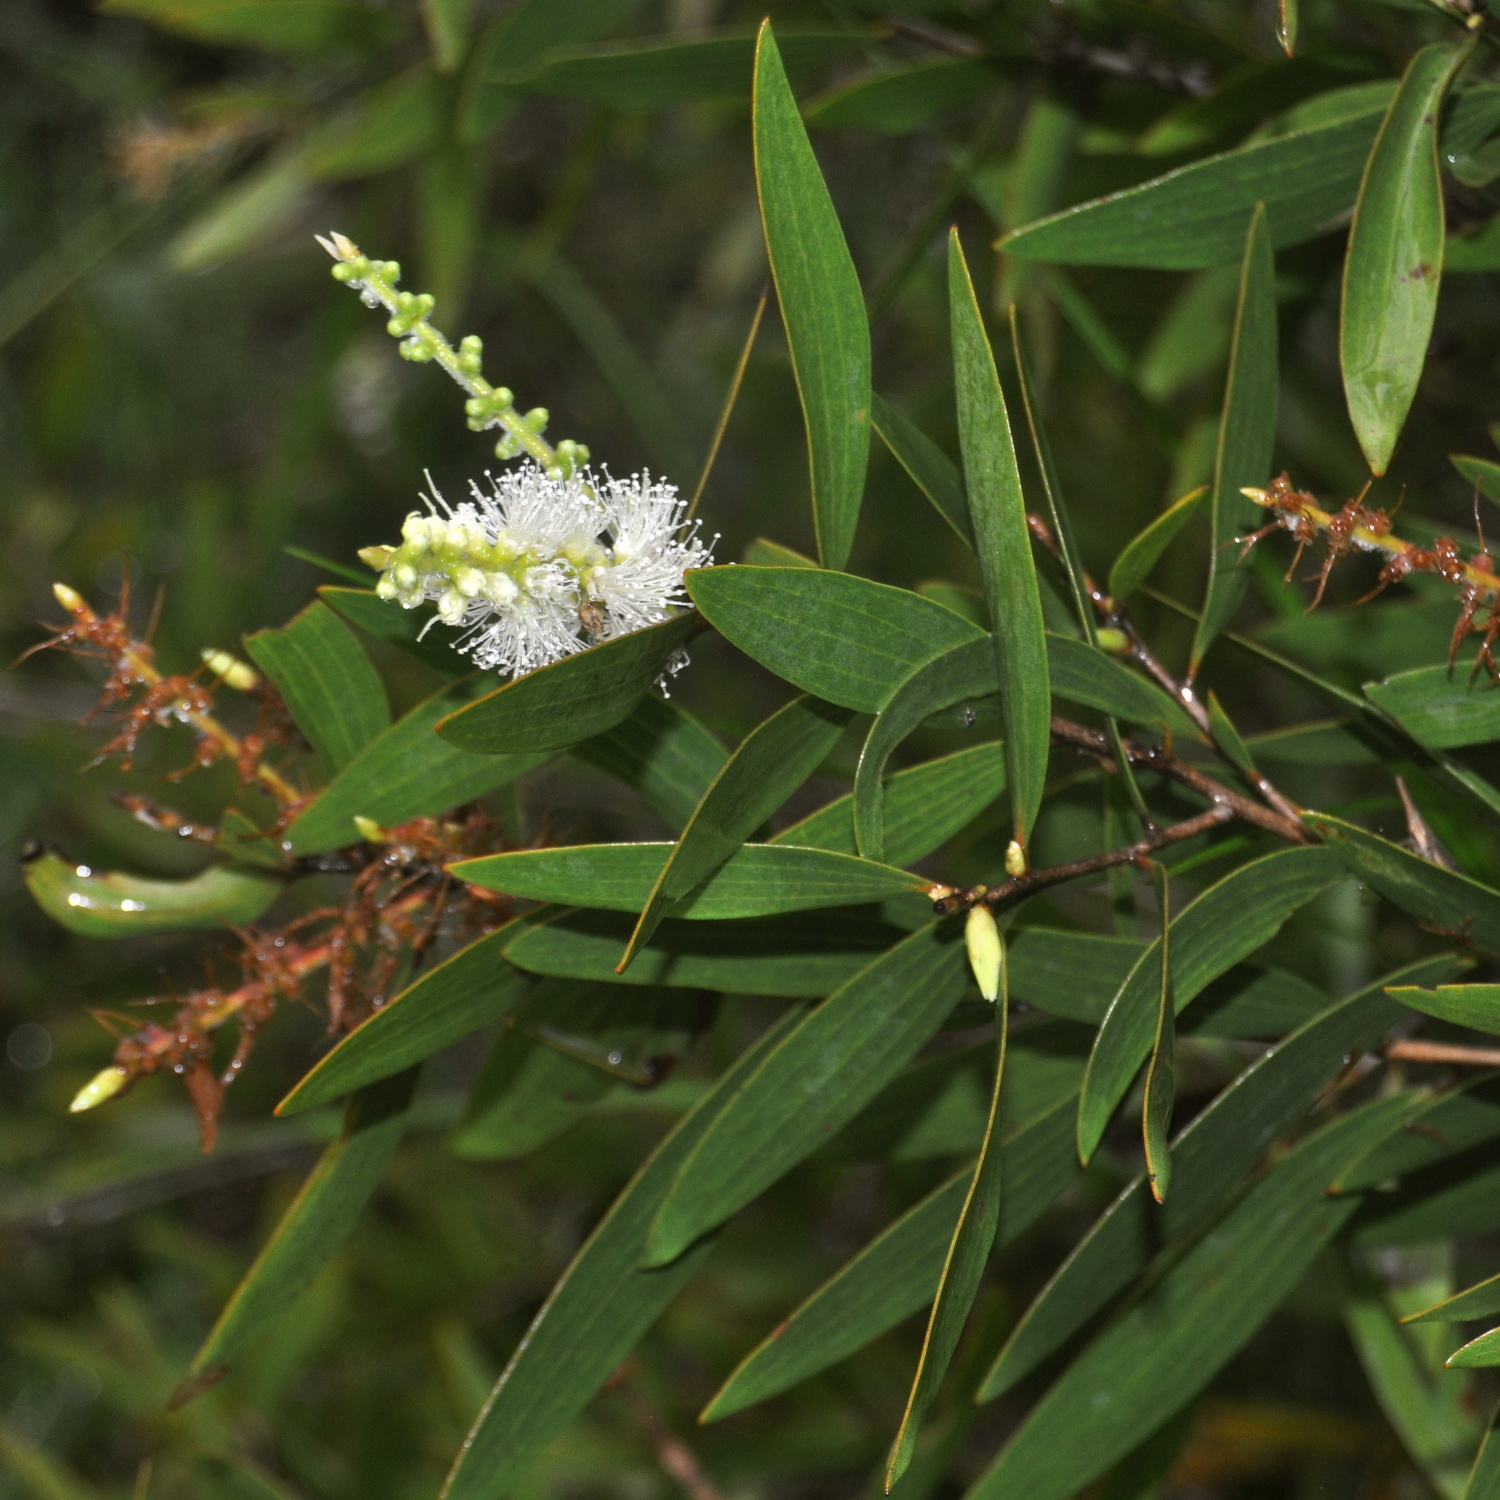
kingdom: Plantae
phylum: Tracheophyta
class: Magnoliopsida
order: Myrtales
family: Myrtaceae
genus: Melaleuca
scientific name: Melaleuca cajuputi
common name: Cajuput
